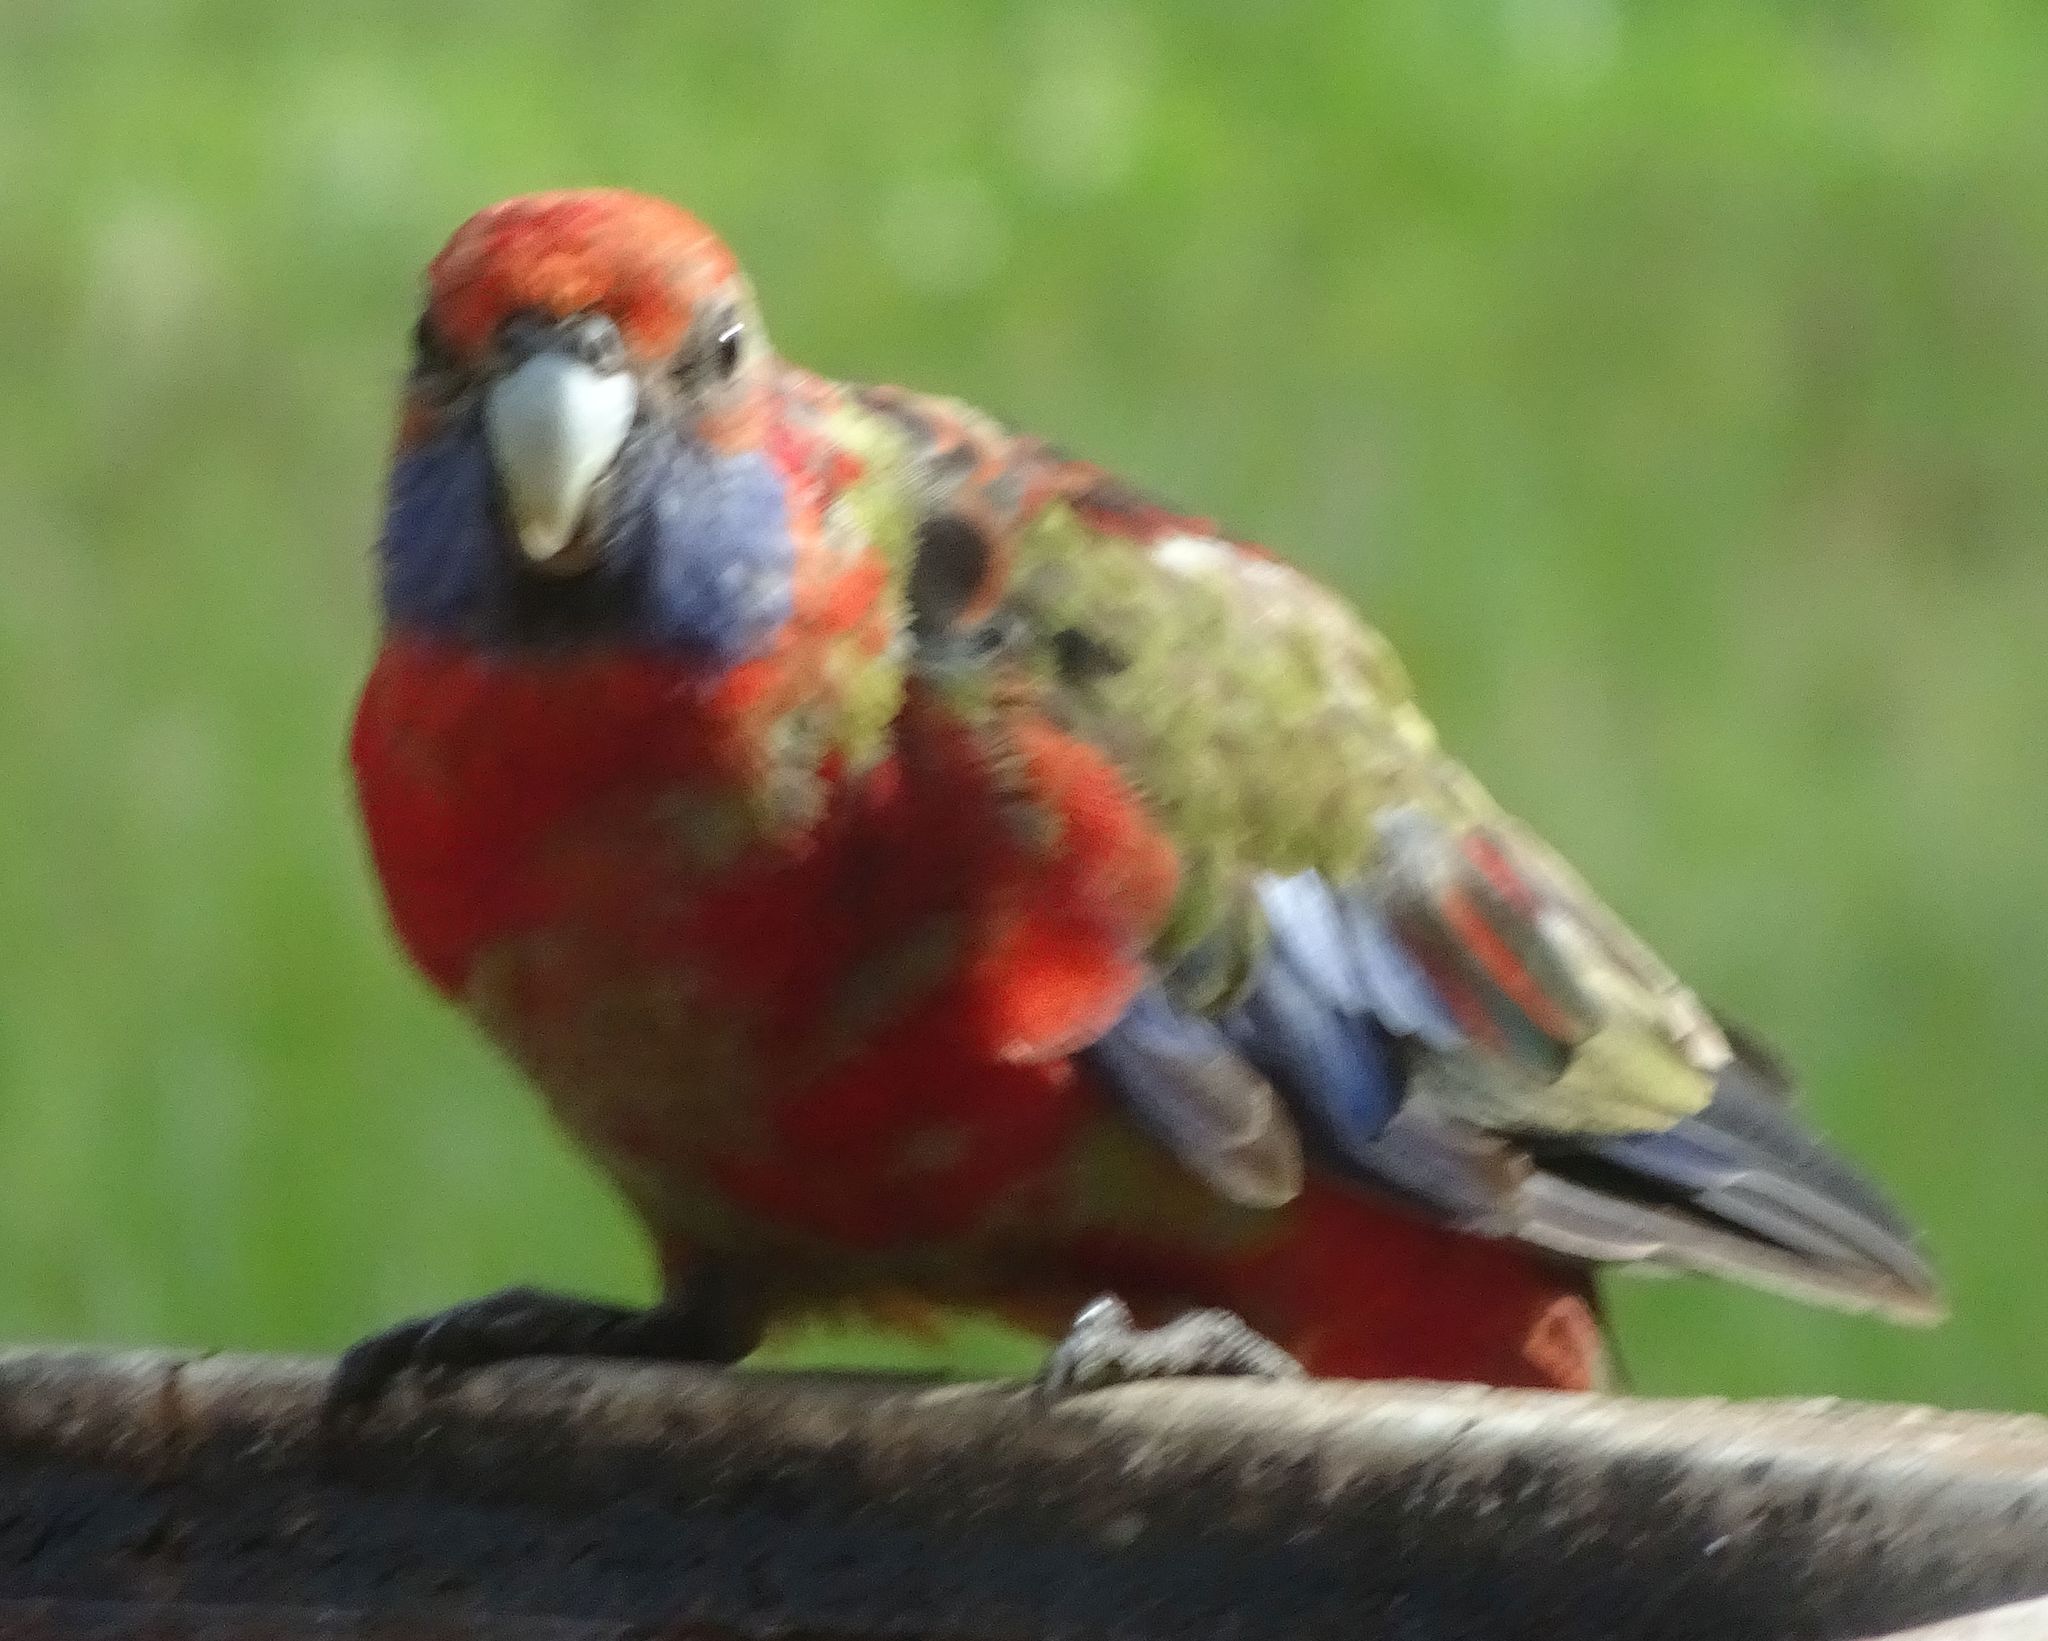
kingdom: Animalia
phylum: Chordata
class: Aves
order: Psittaciformes
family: Psittacidae
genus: Platycercus
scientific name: Platycercus elegans
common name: Crimson rosella
